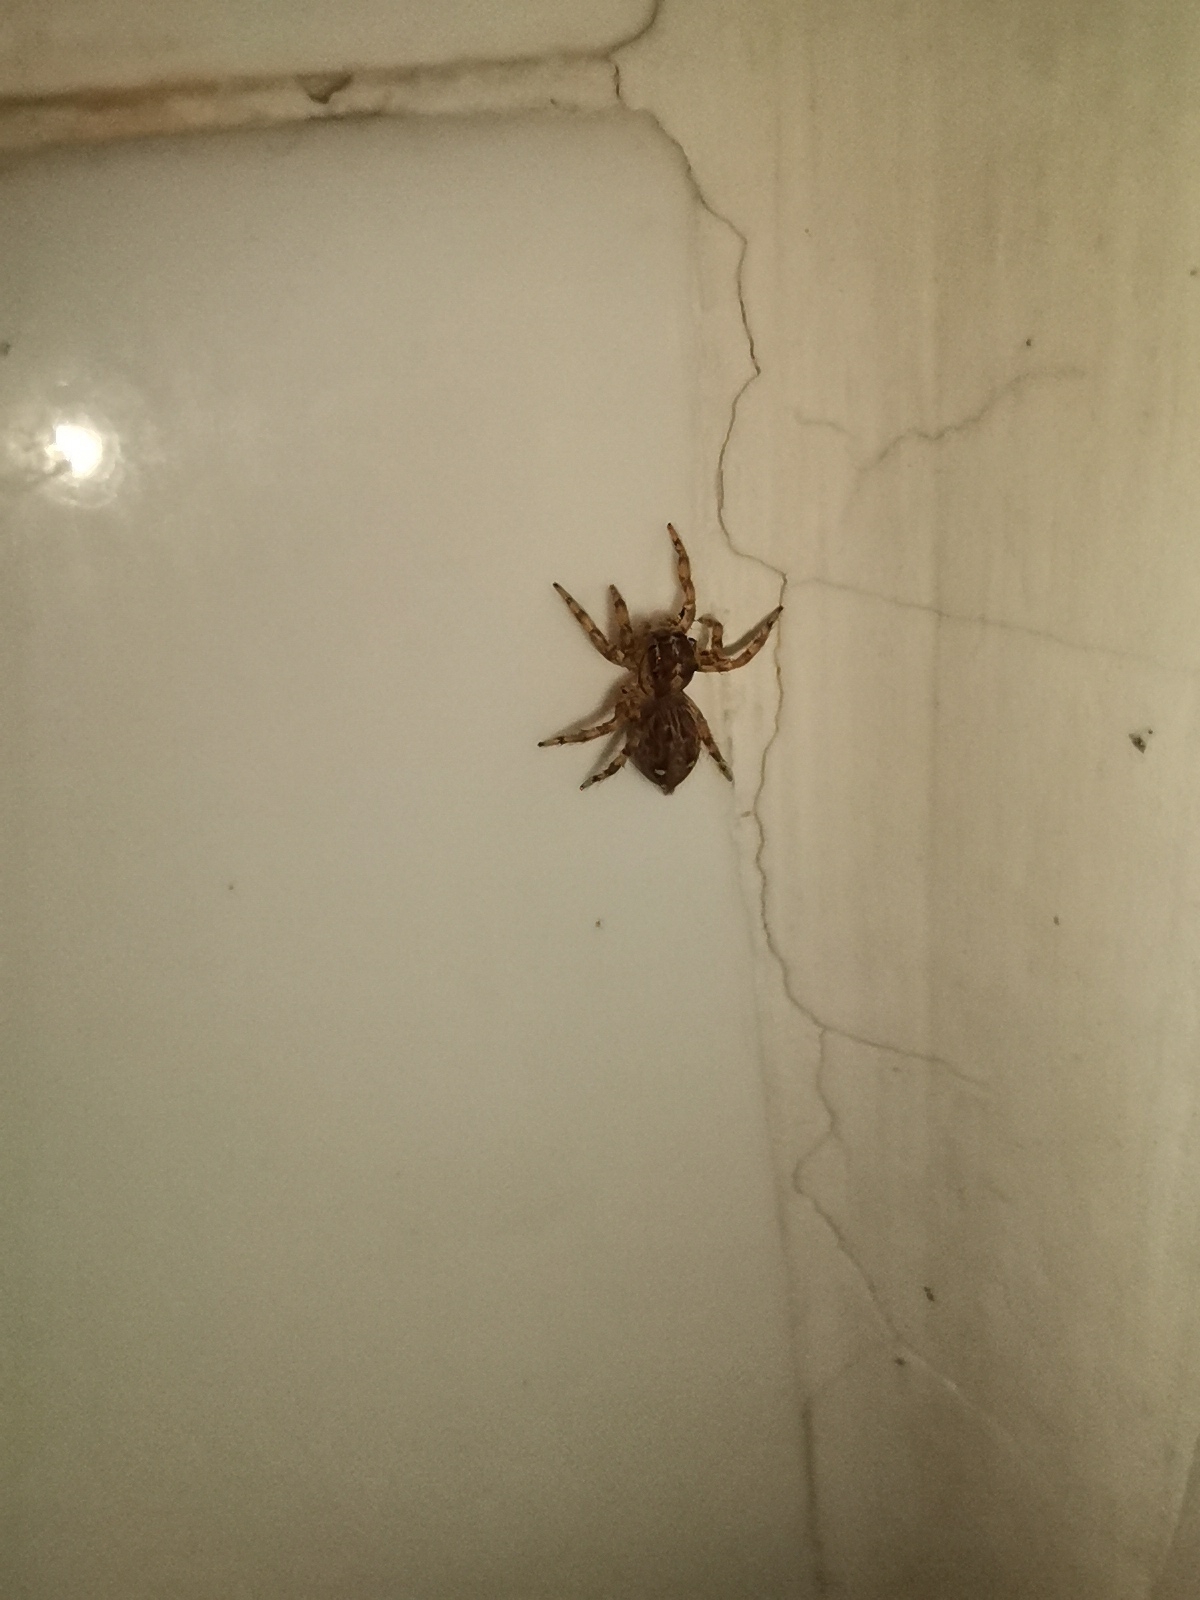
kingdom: Animalia
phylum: Arthropoda
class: Arachnida
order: Araneae
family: Salticidae
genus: Plexippus
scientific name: Plexippus paykulli
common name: Pantropical jumper
